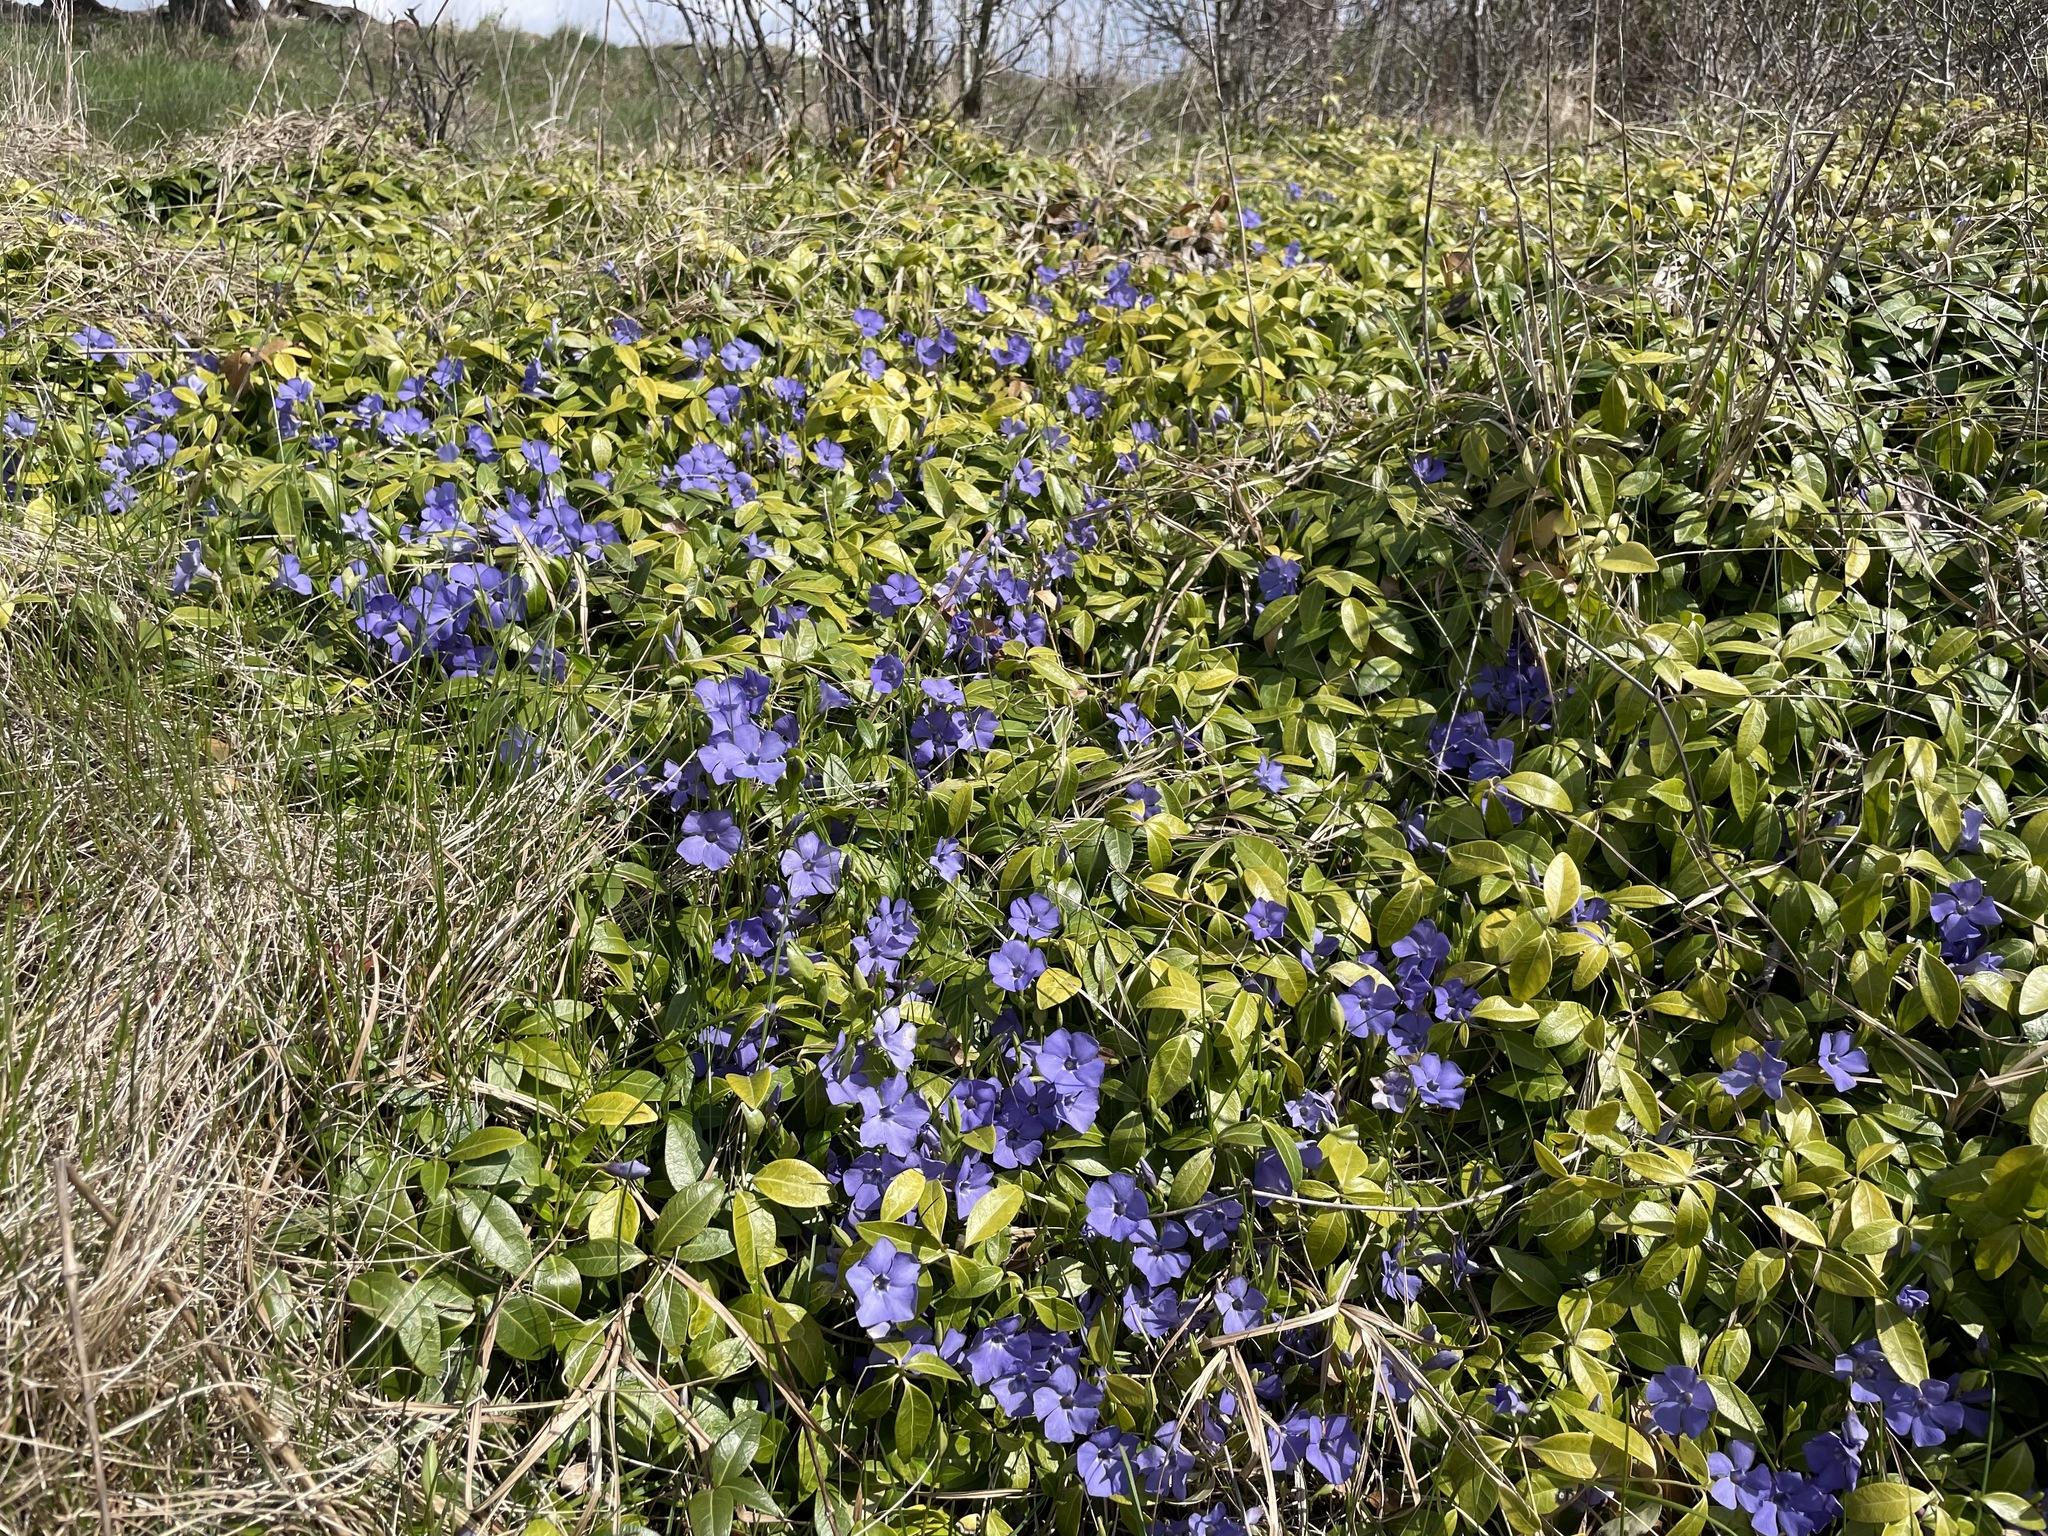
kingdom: Plantae
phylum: Tracheophyta
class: Magnoliopsida
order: Gentianales
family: Apocynaceae
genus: Vinca
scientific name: Vinca minor
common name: Lesser periwinkle
